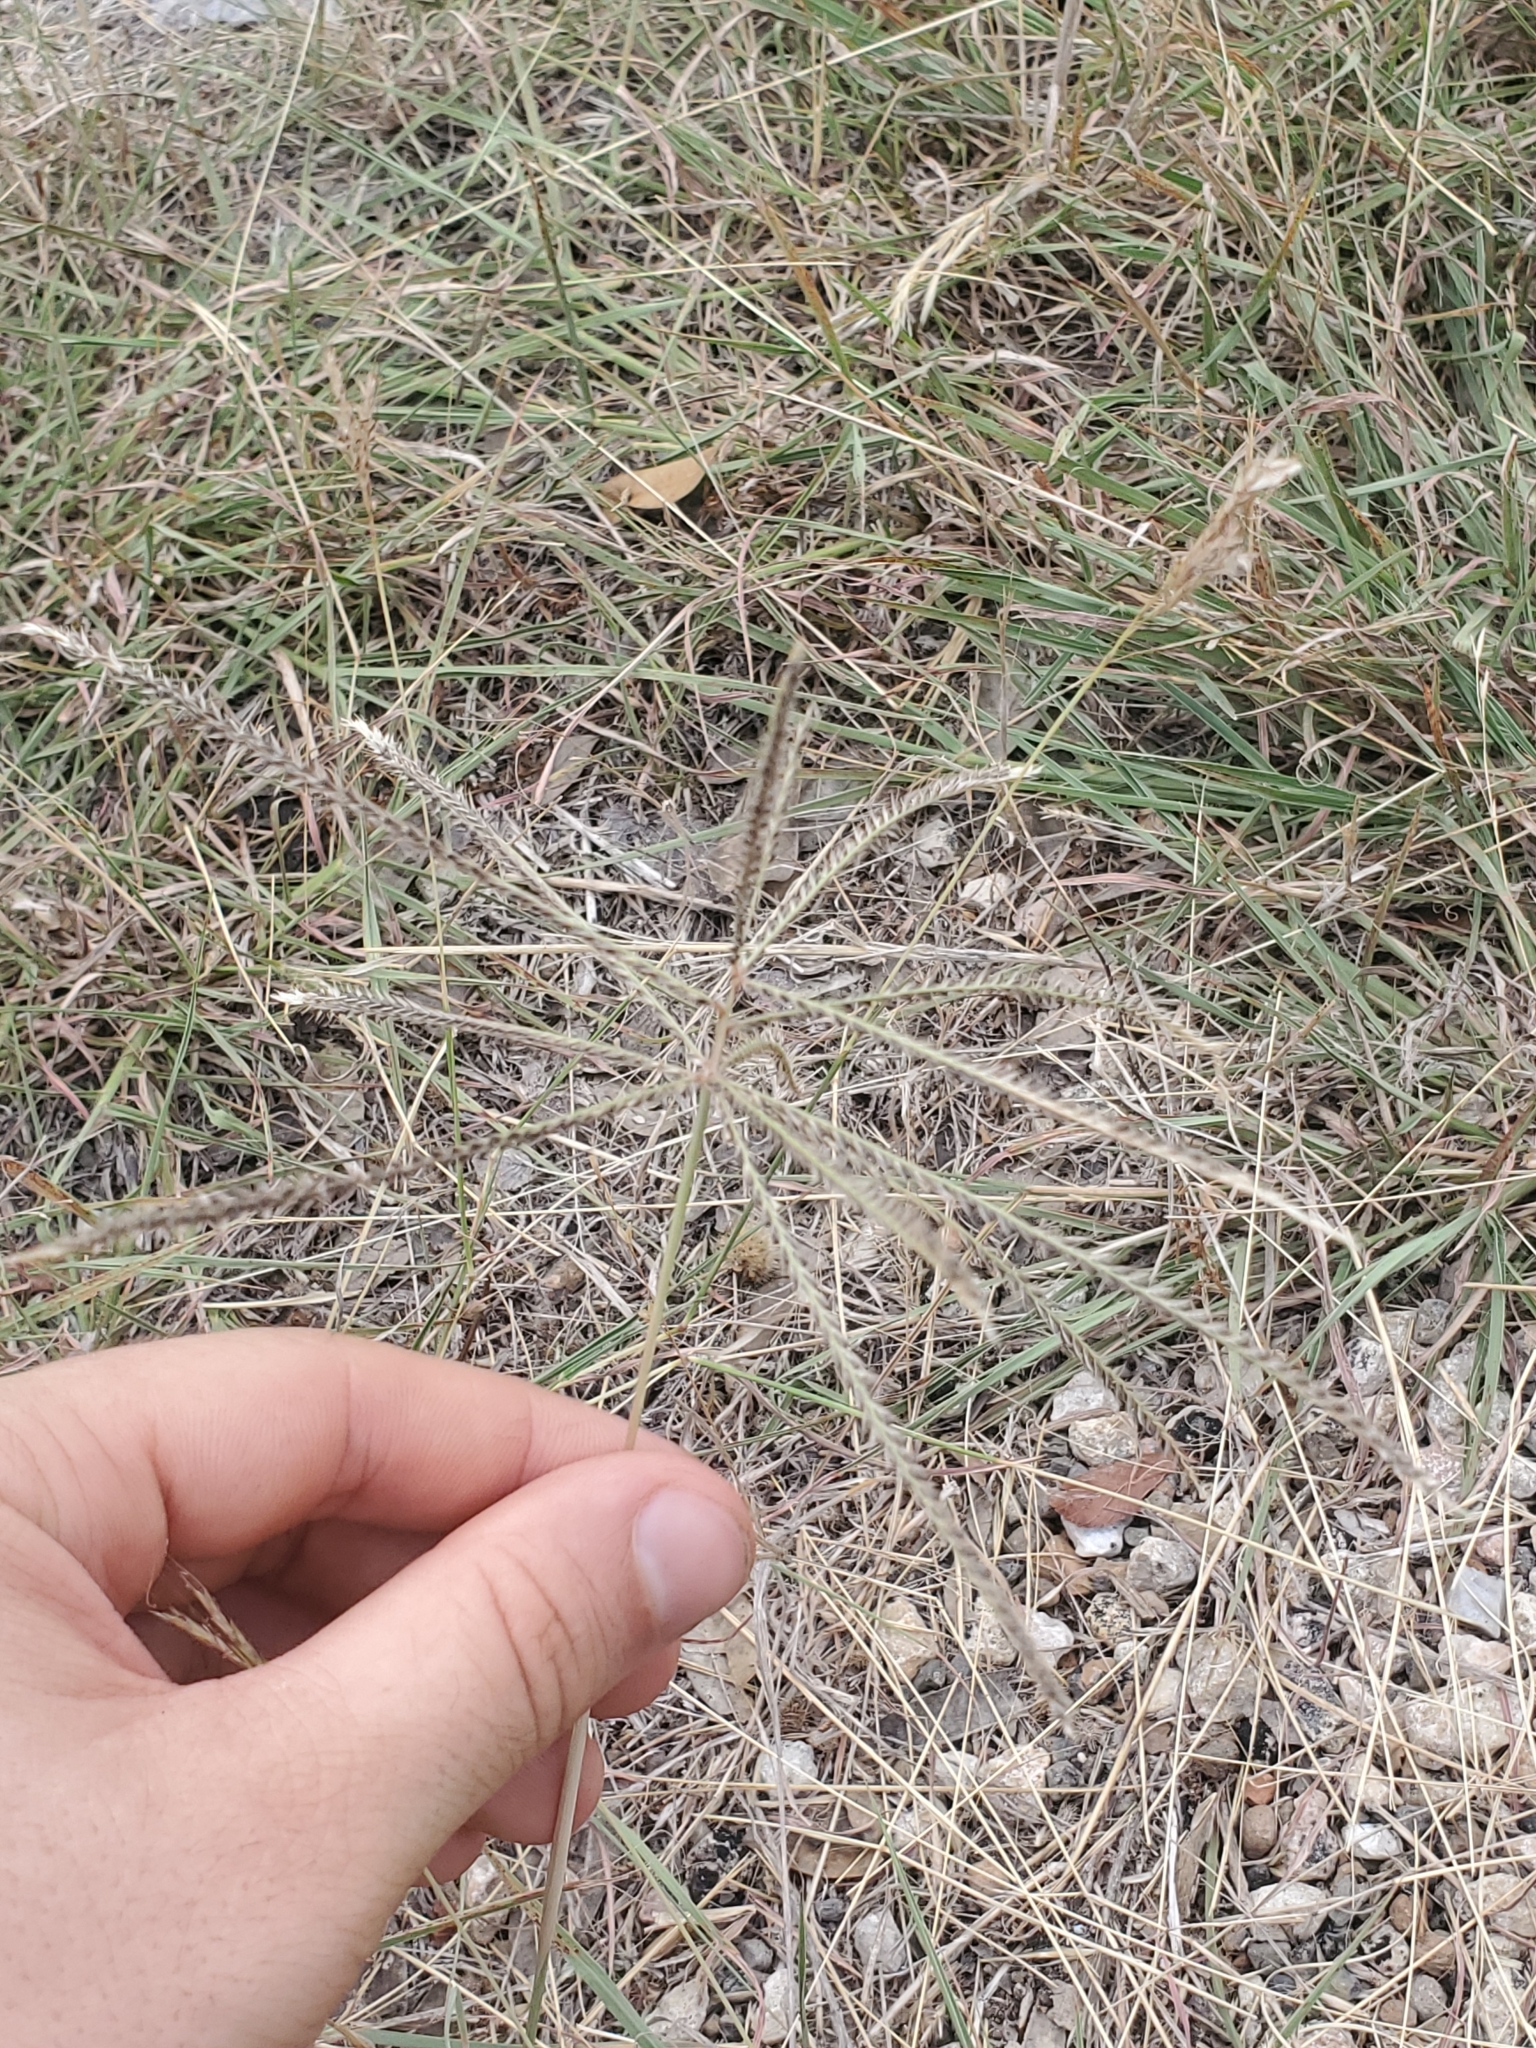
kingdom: Plantae
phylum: Tracheophyta
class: Liliopsida
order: Poales
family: Poaceae
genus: Chloris
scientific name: Chloris verticillata
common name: Tumble windmill grass
